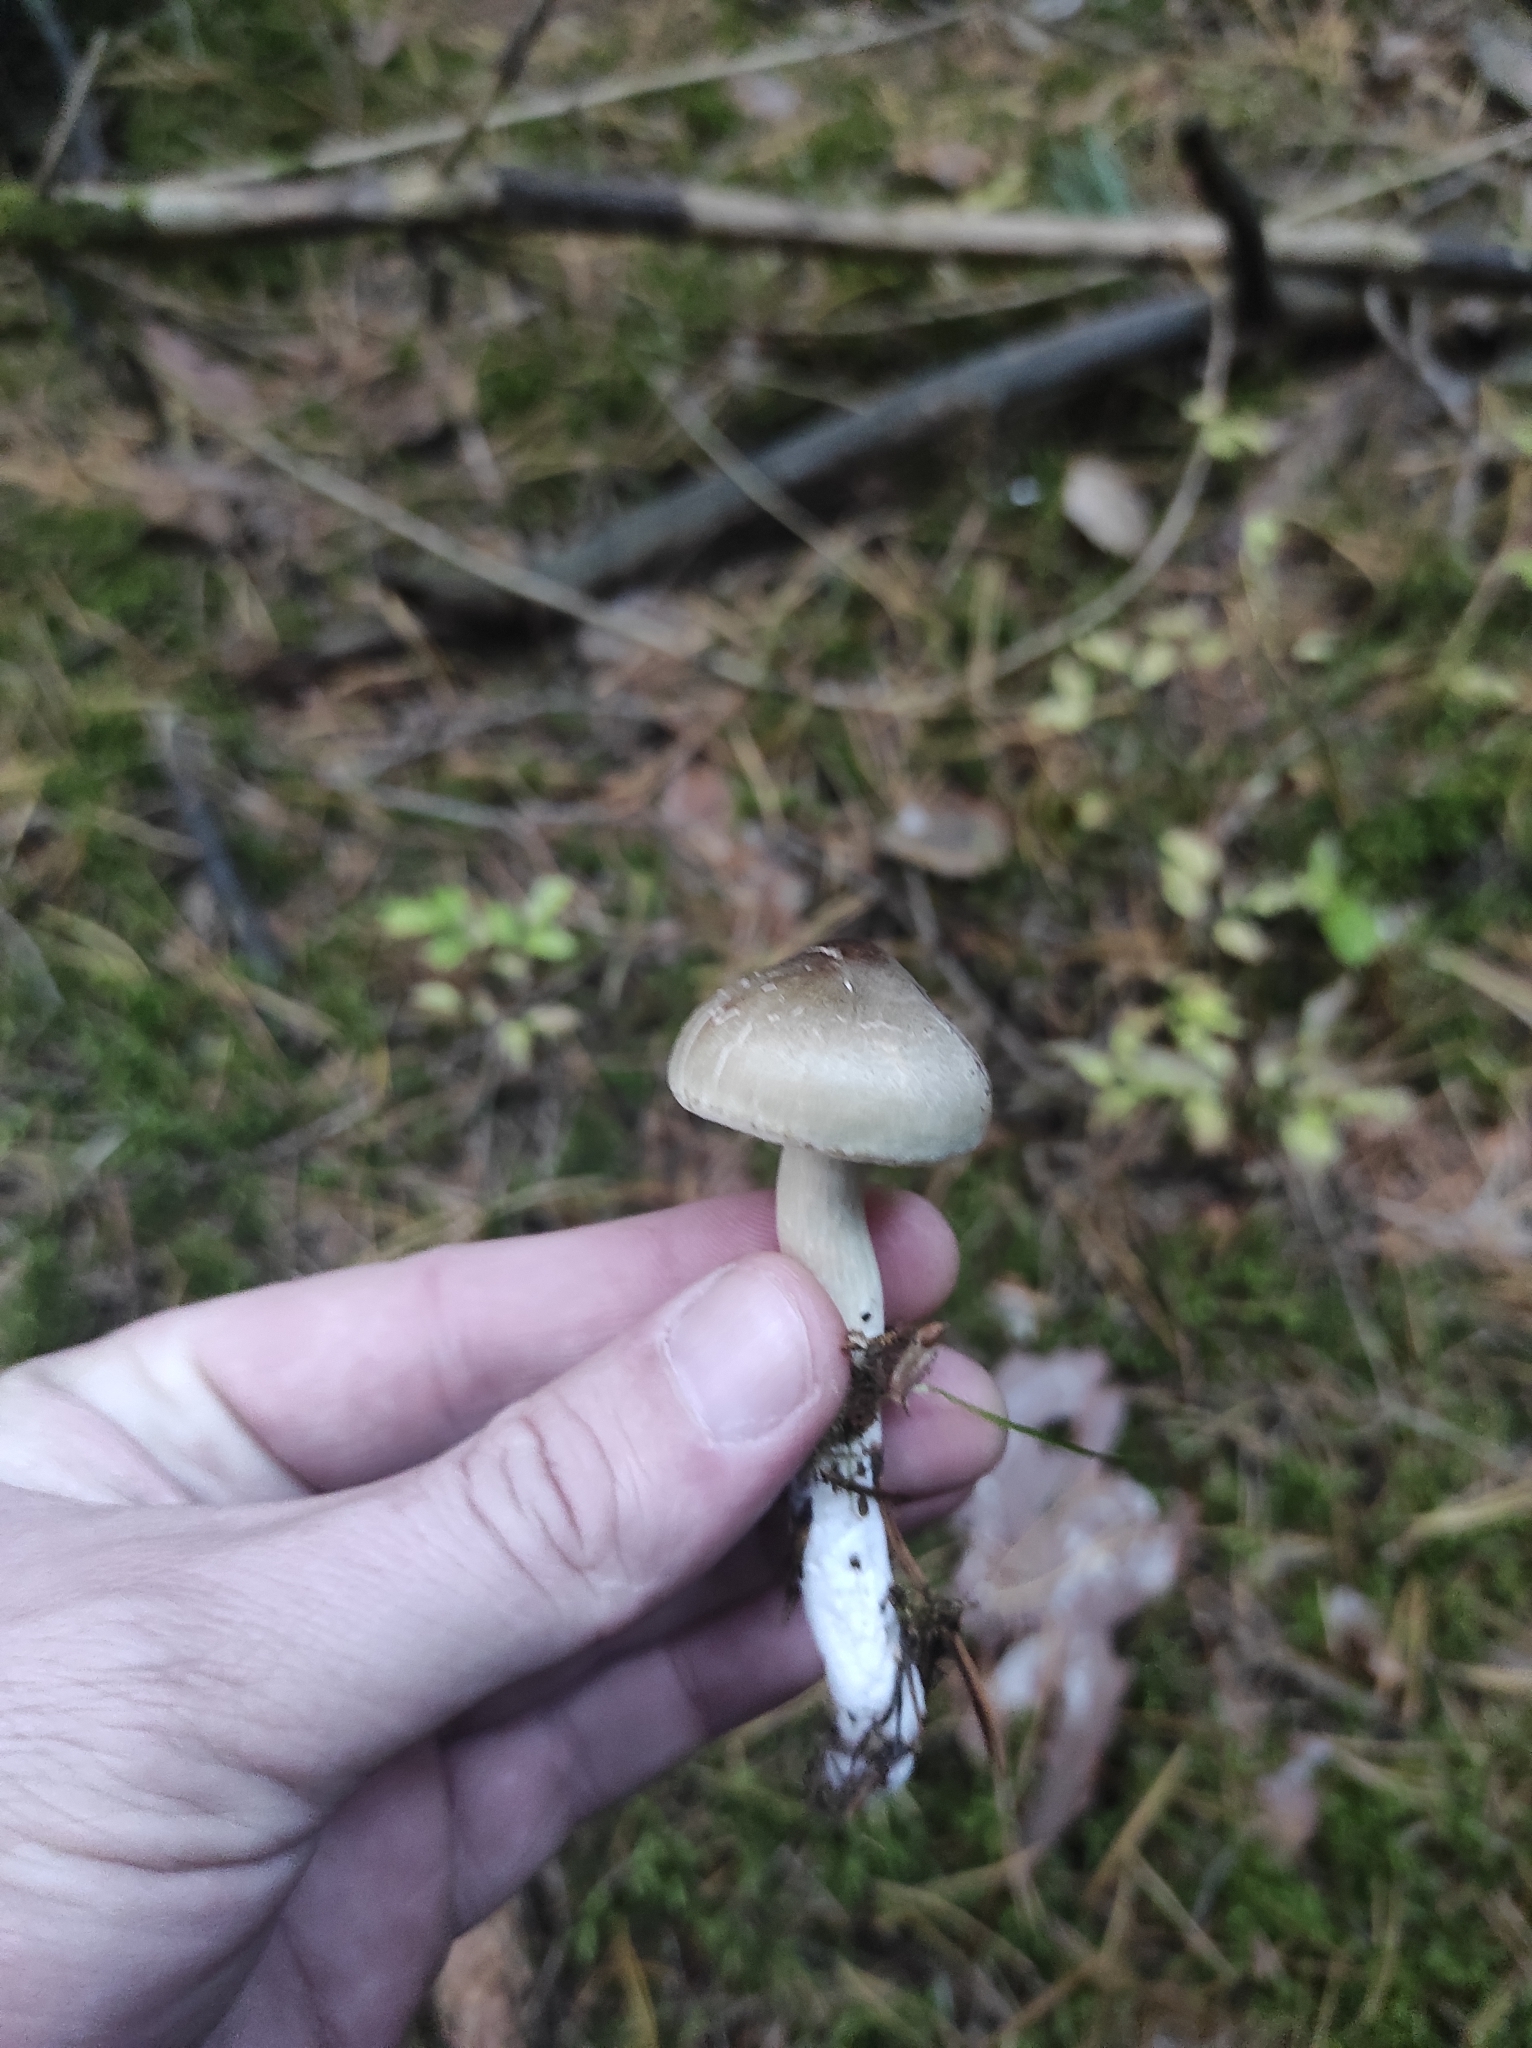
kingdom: Fungi
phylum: Basidiomycota
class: Agaricomycetes
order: Agaricales
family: Tricholomataceae
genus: Tricholoma
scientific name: Tricholoma saponaceum
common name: Soapy trich
